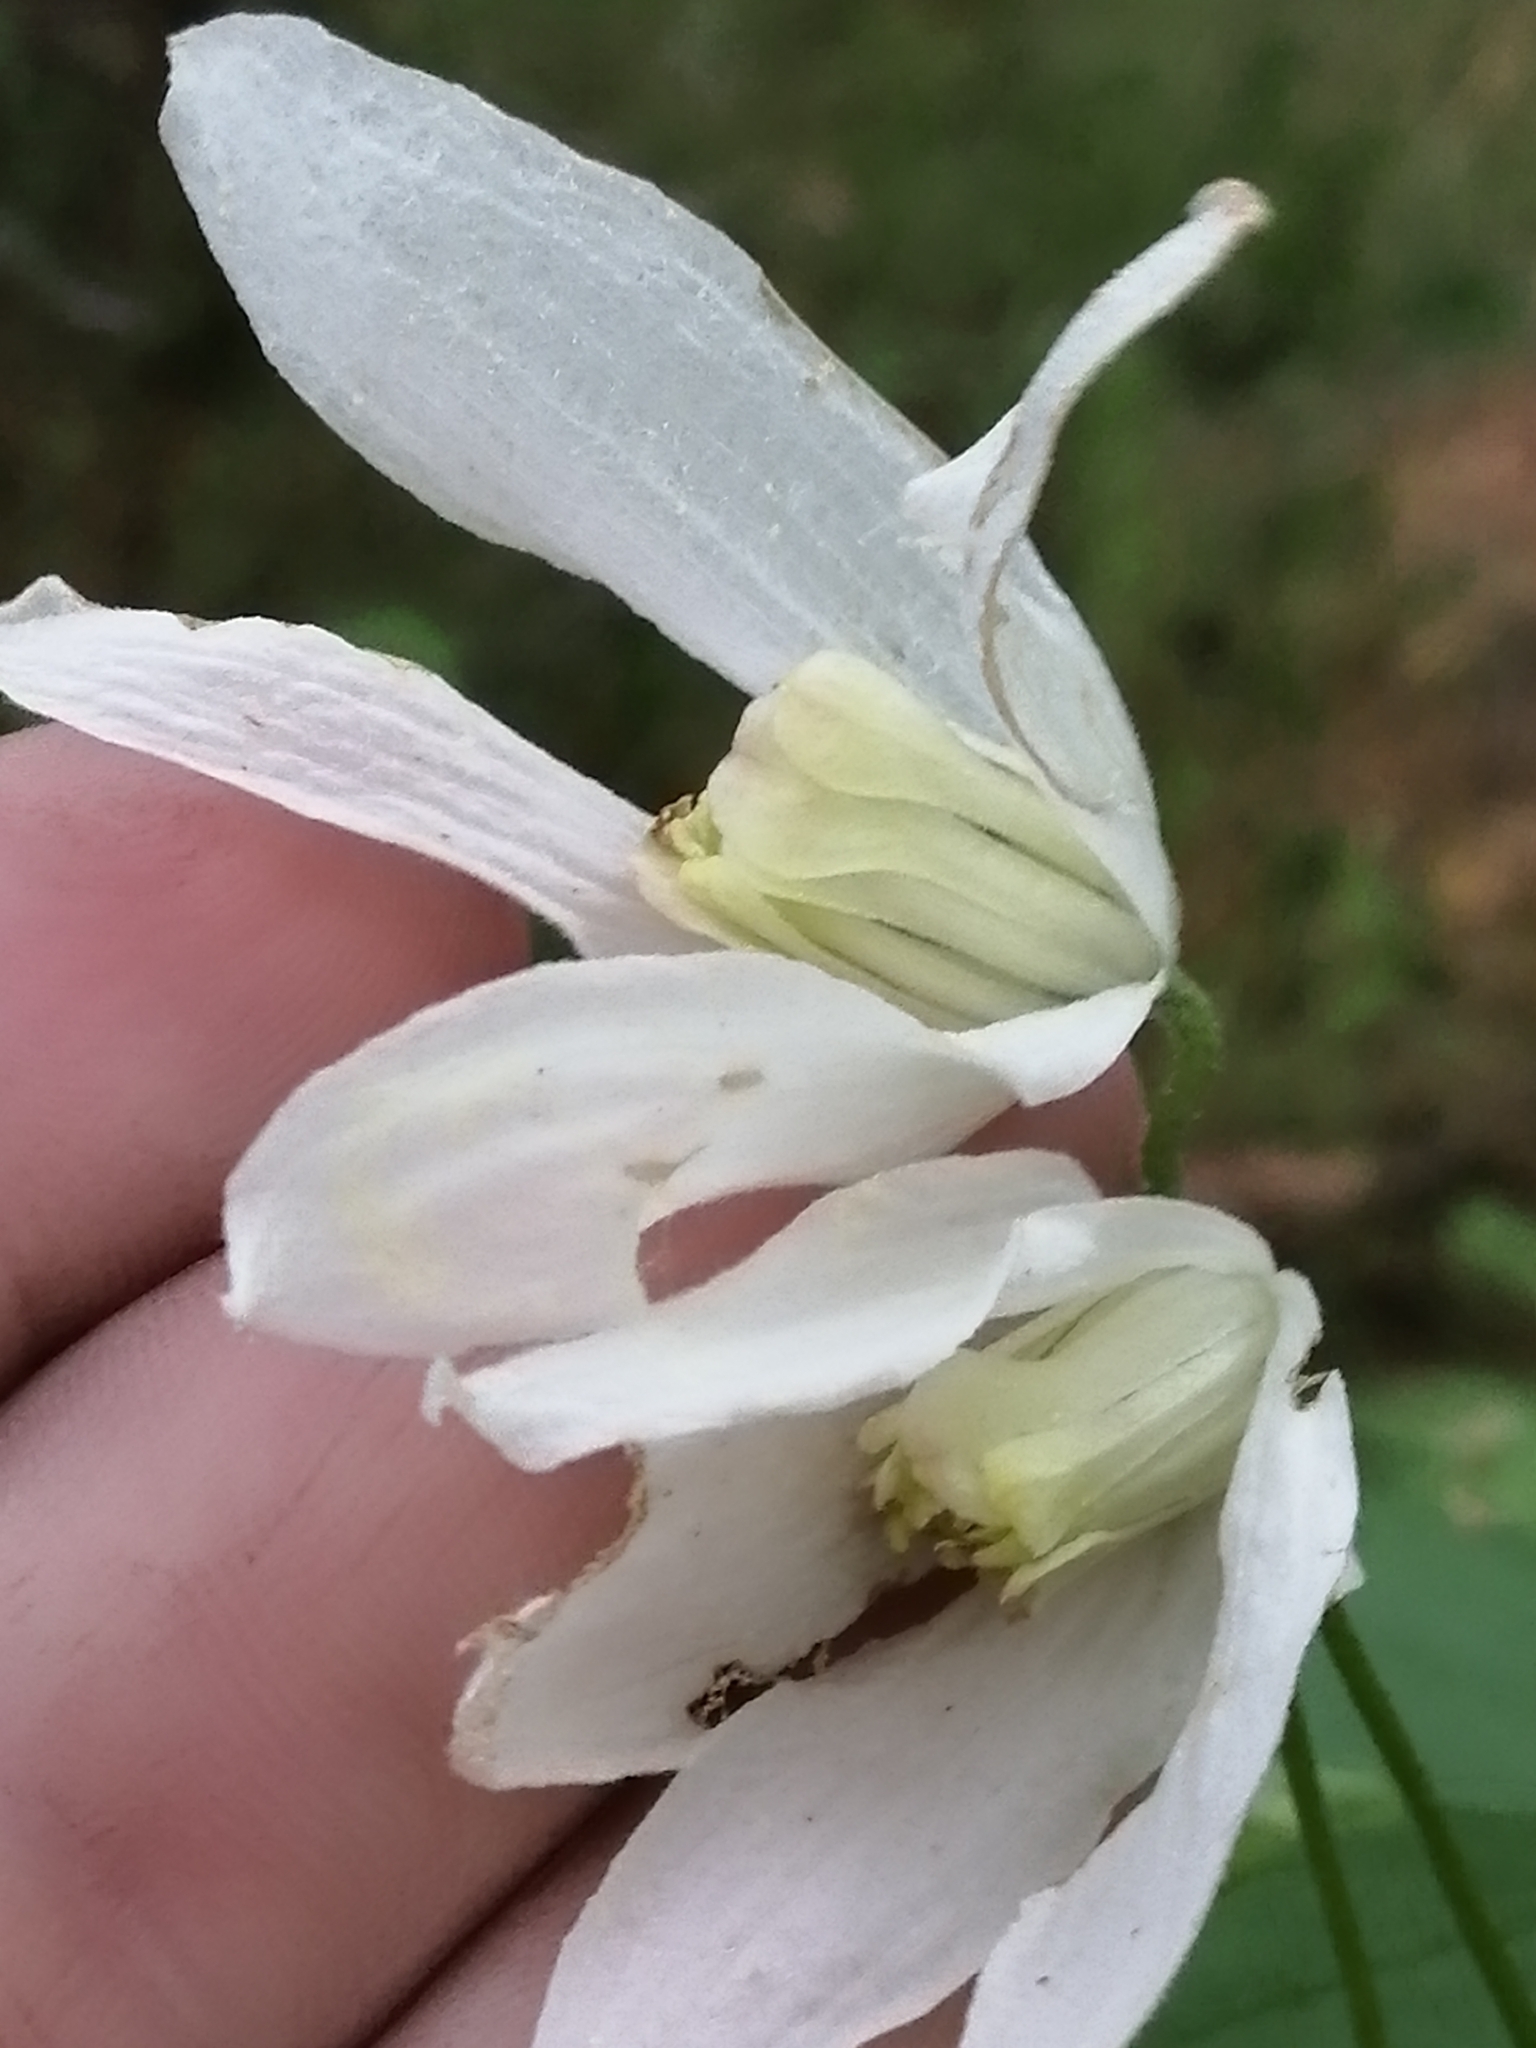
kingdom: Plantae
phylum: Tracheophyta
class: Magnoliopsida
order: Ranunculales
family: Ranunculaceae
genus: Clematis
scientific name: Clematis sibirica
